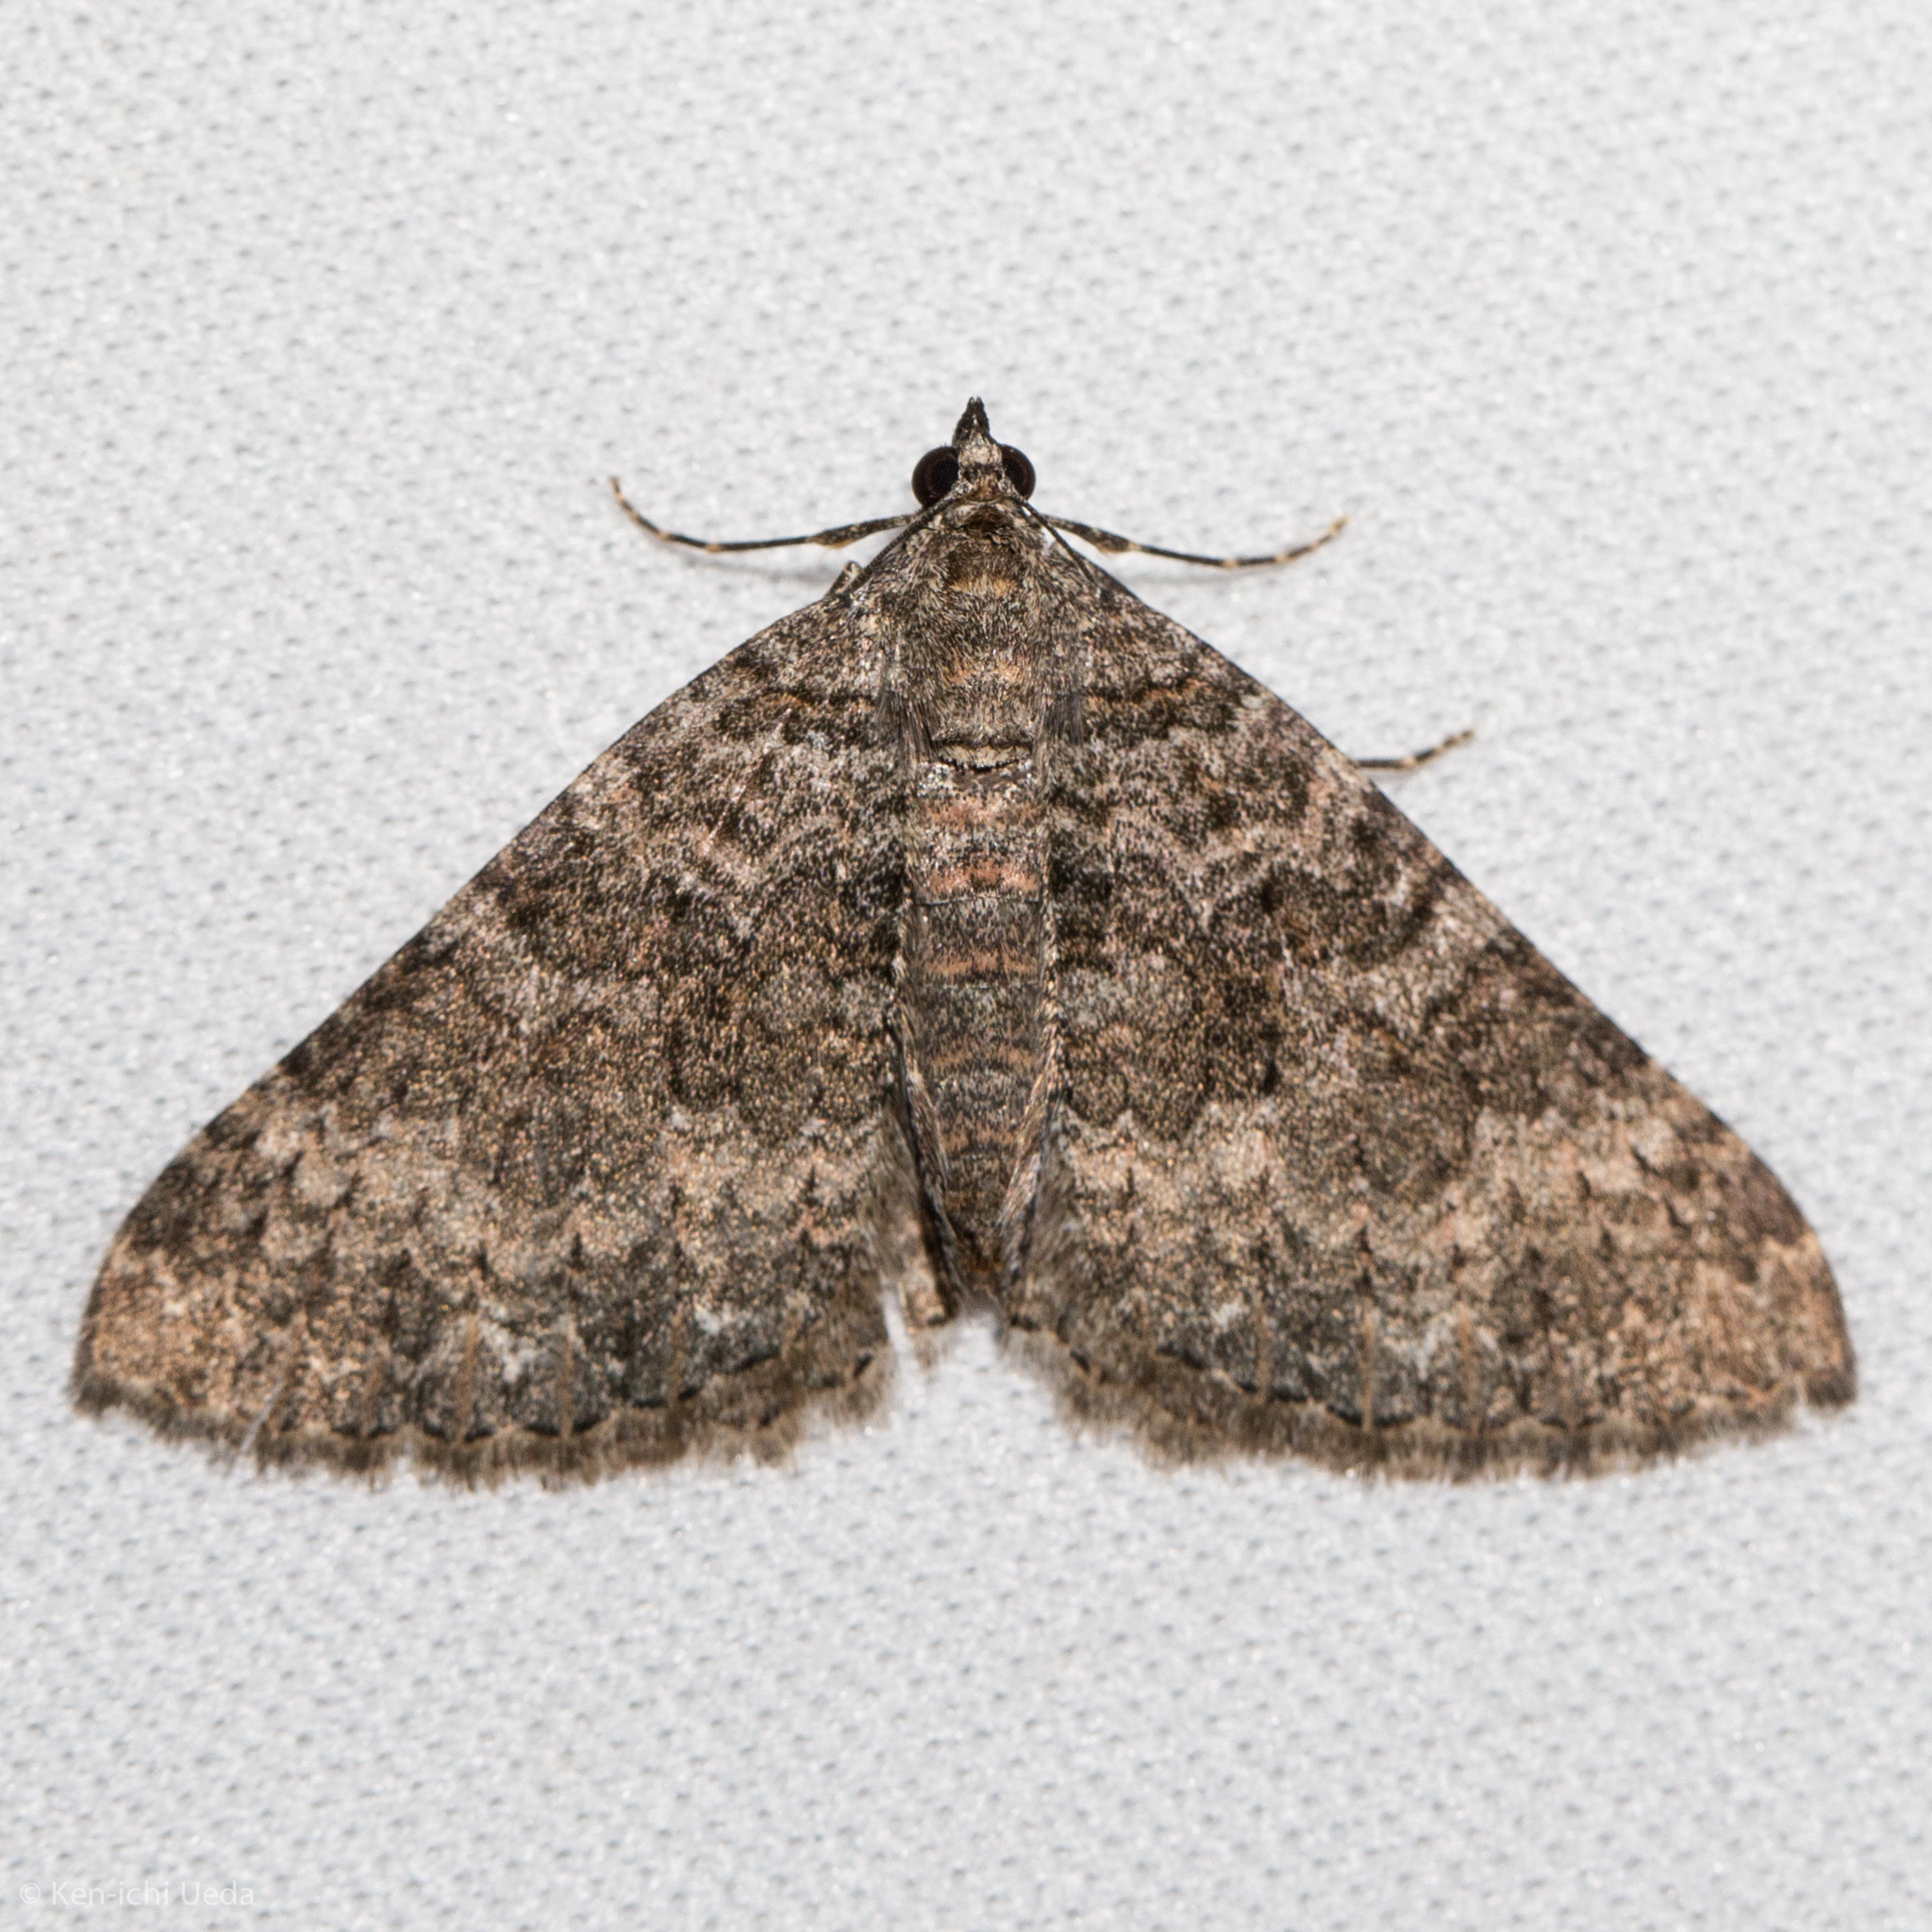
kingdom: Animalia
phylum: Arthropoda
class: Insecta
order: Lepidoptera
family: Geometridae
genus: Archirhoe
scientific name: Archirhoe neomexicana
